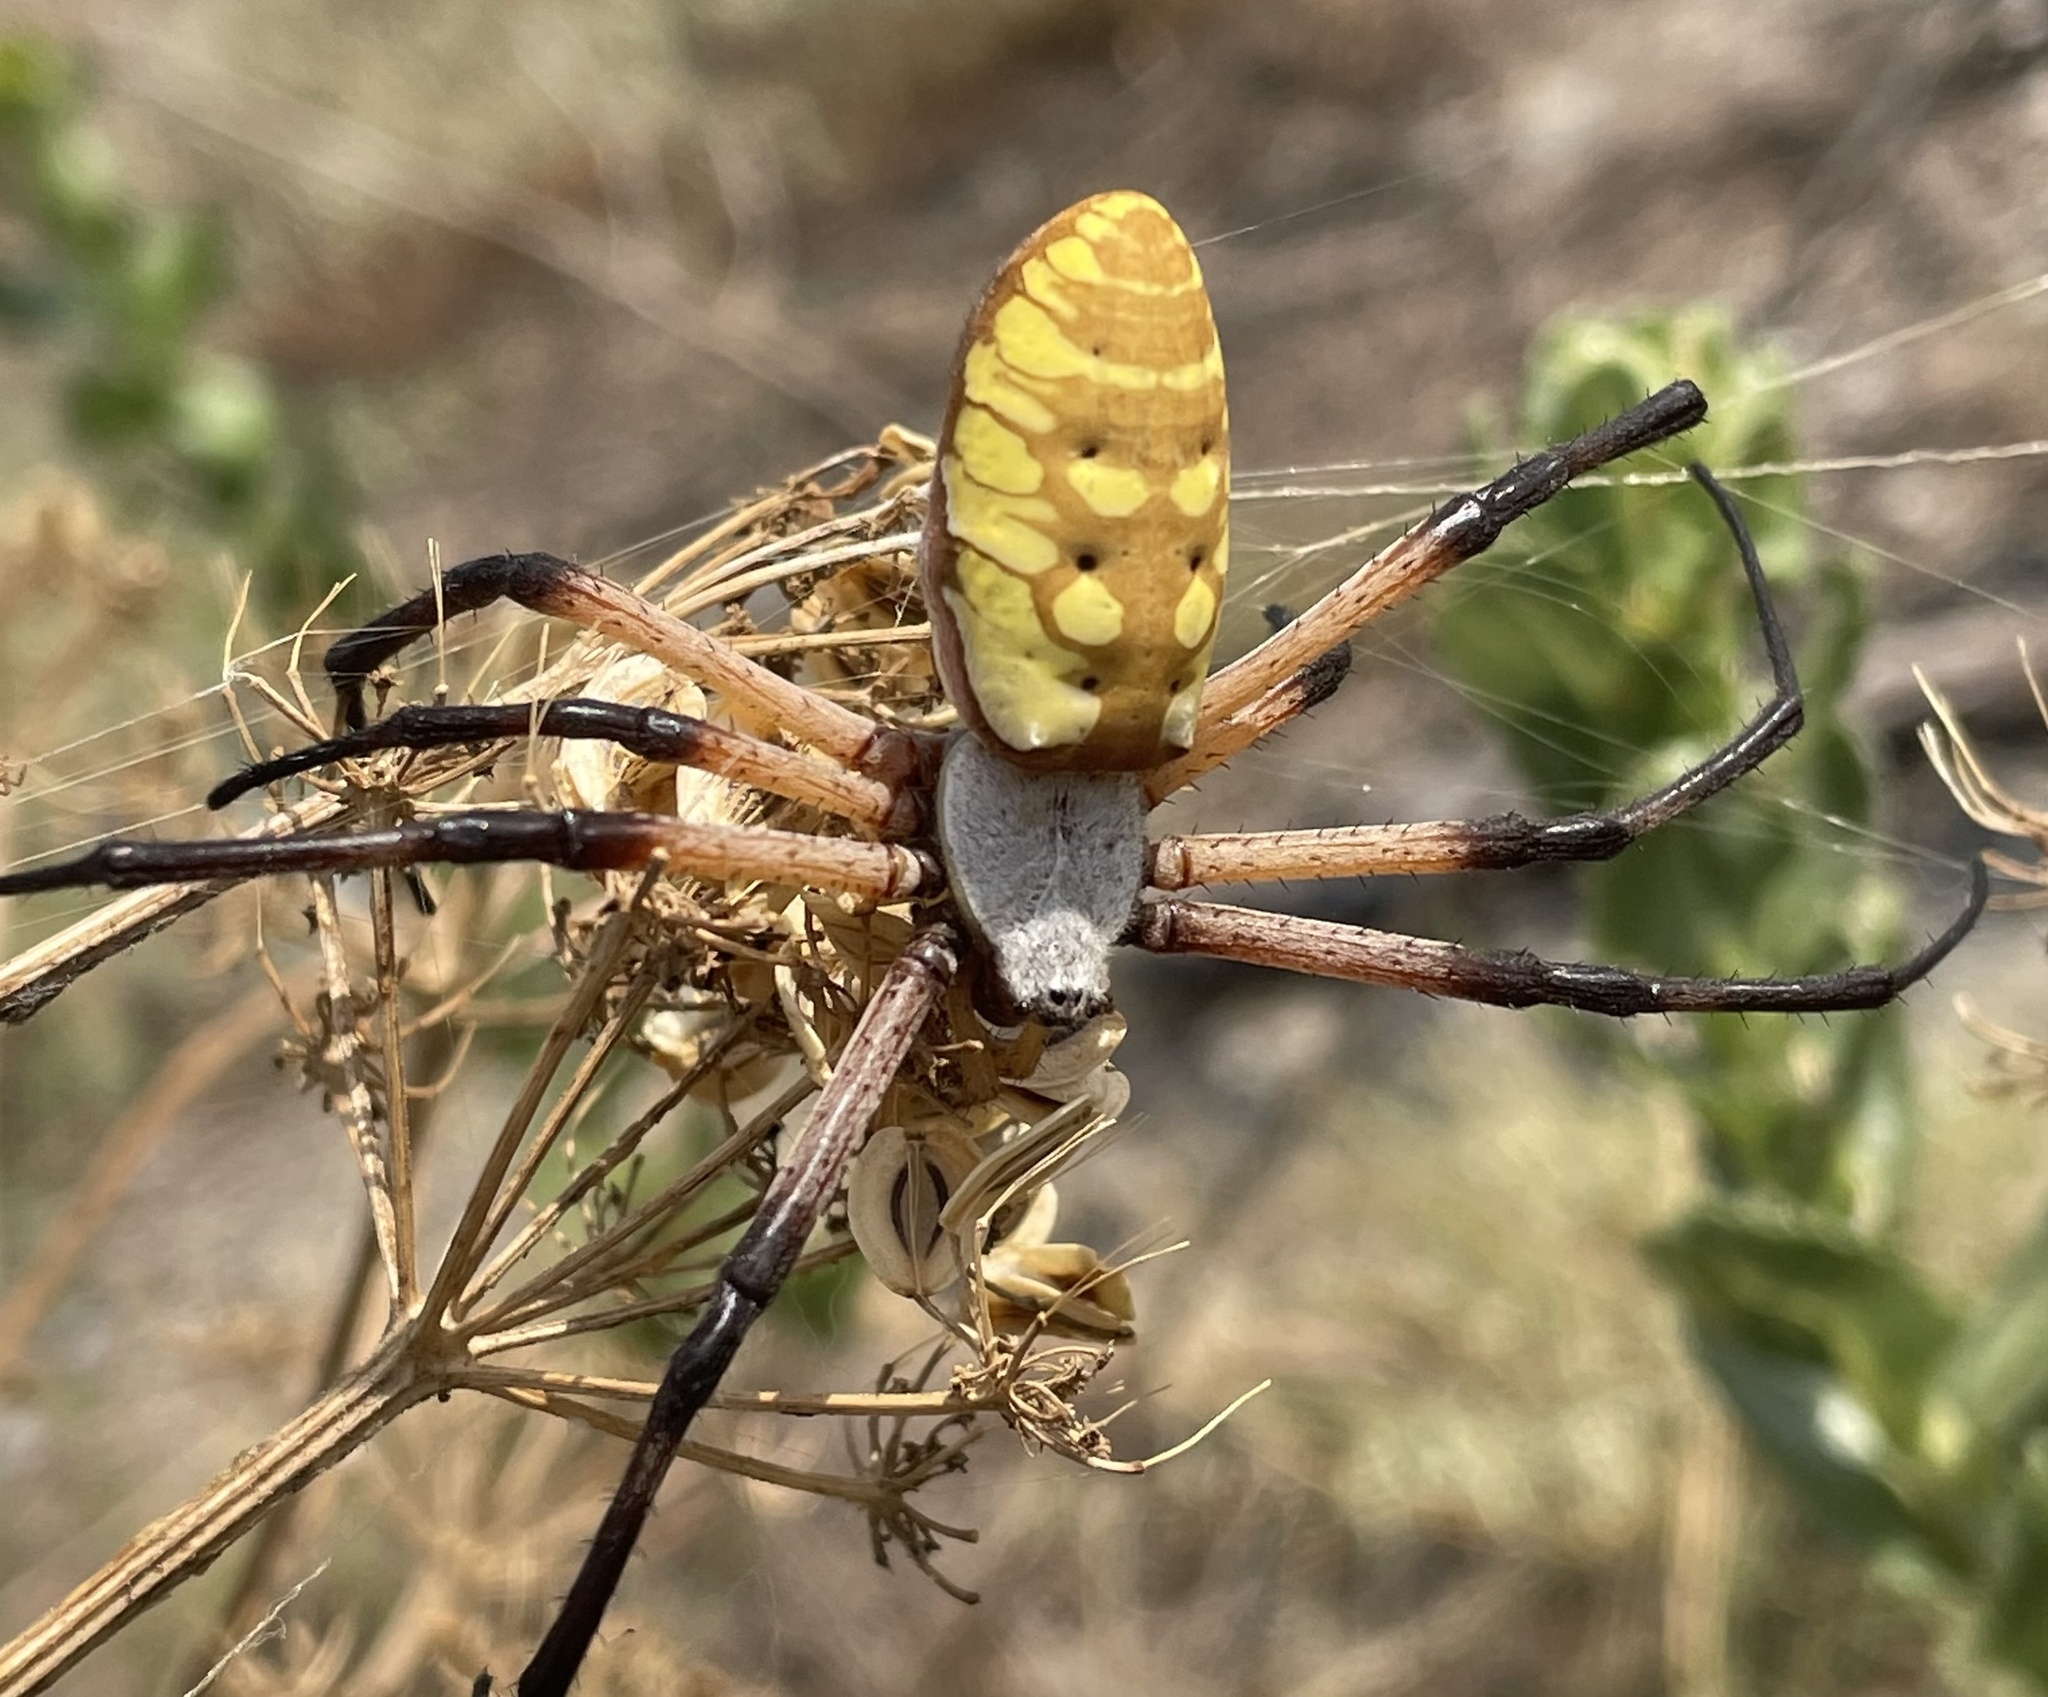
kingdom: Animalia
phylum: Arthropoda
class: Arachnida
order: Araneae
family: Araneidae
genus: Argiope
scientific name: Argiope aurantia
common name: Orb weavers
